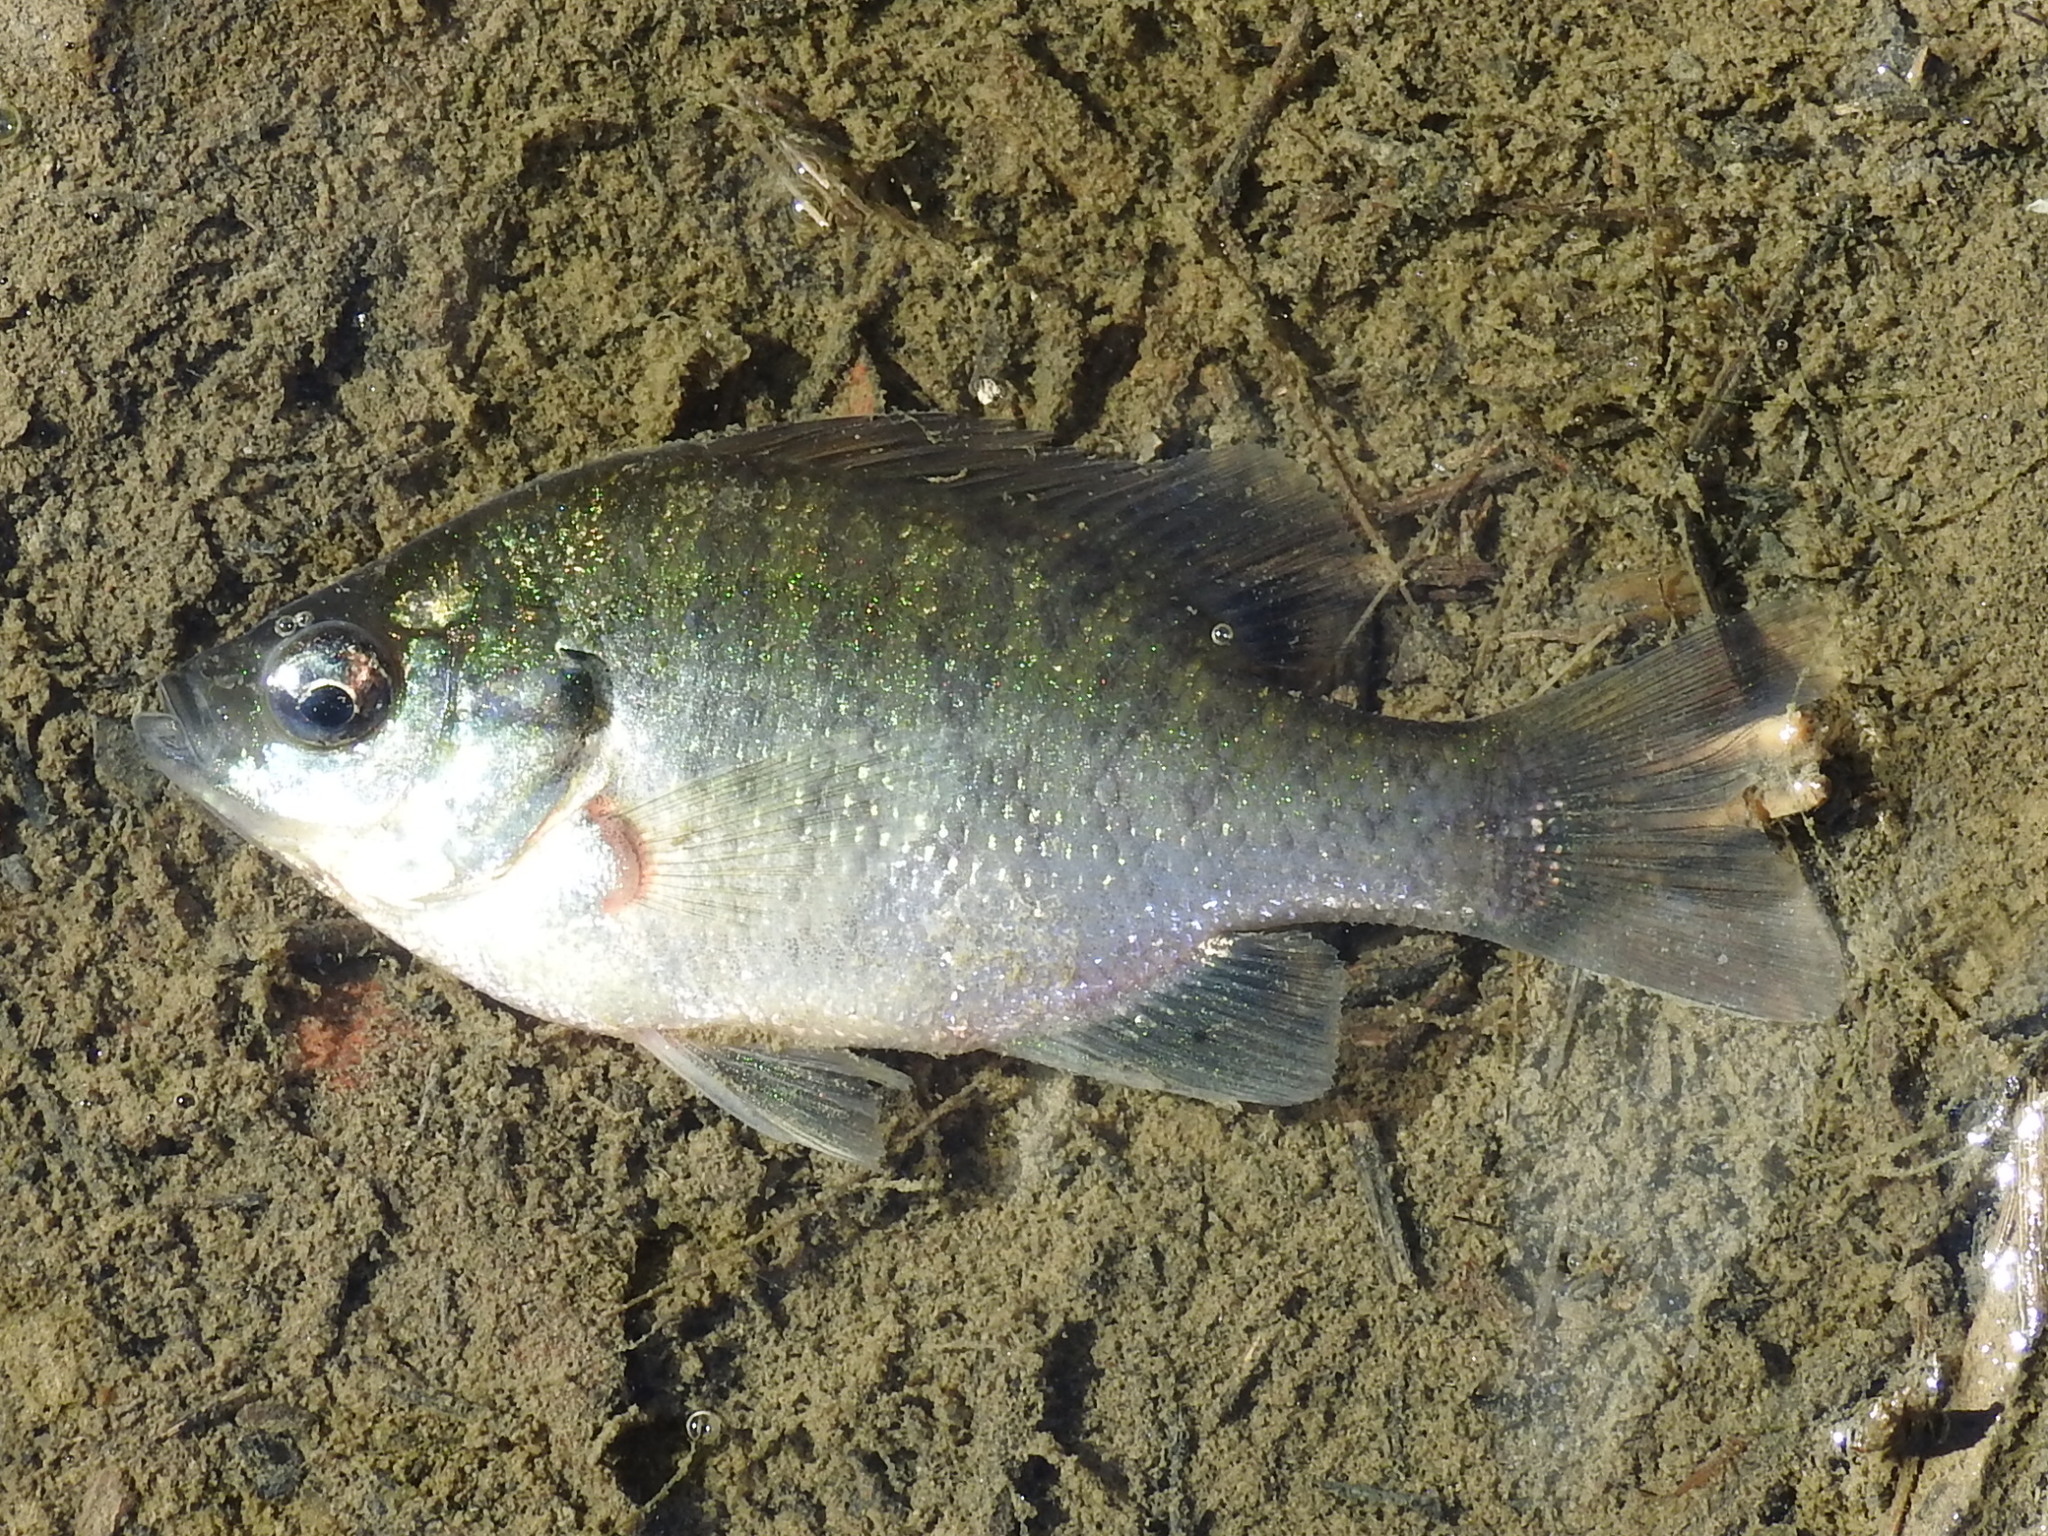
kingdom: Animalia
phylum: Chordata
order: Perciformes
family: Centrarchidae
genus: Lepomis
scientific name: Lepomis macrochirus
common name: Bluegill
